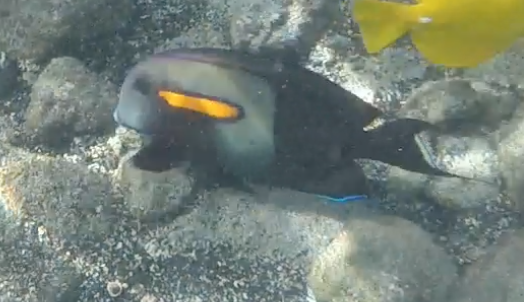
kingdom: Animalia
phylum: Chordata
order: Perciformes
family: Acanthuridae
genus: Acanthurus
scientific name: Acanthurus olivaceus
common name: Gendarme fish
